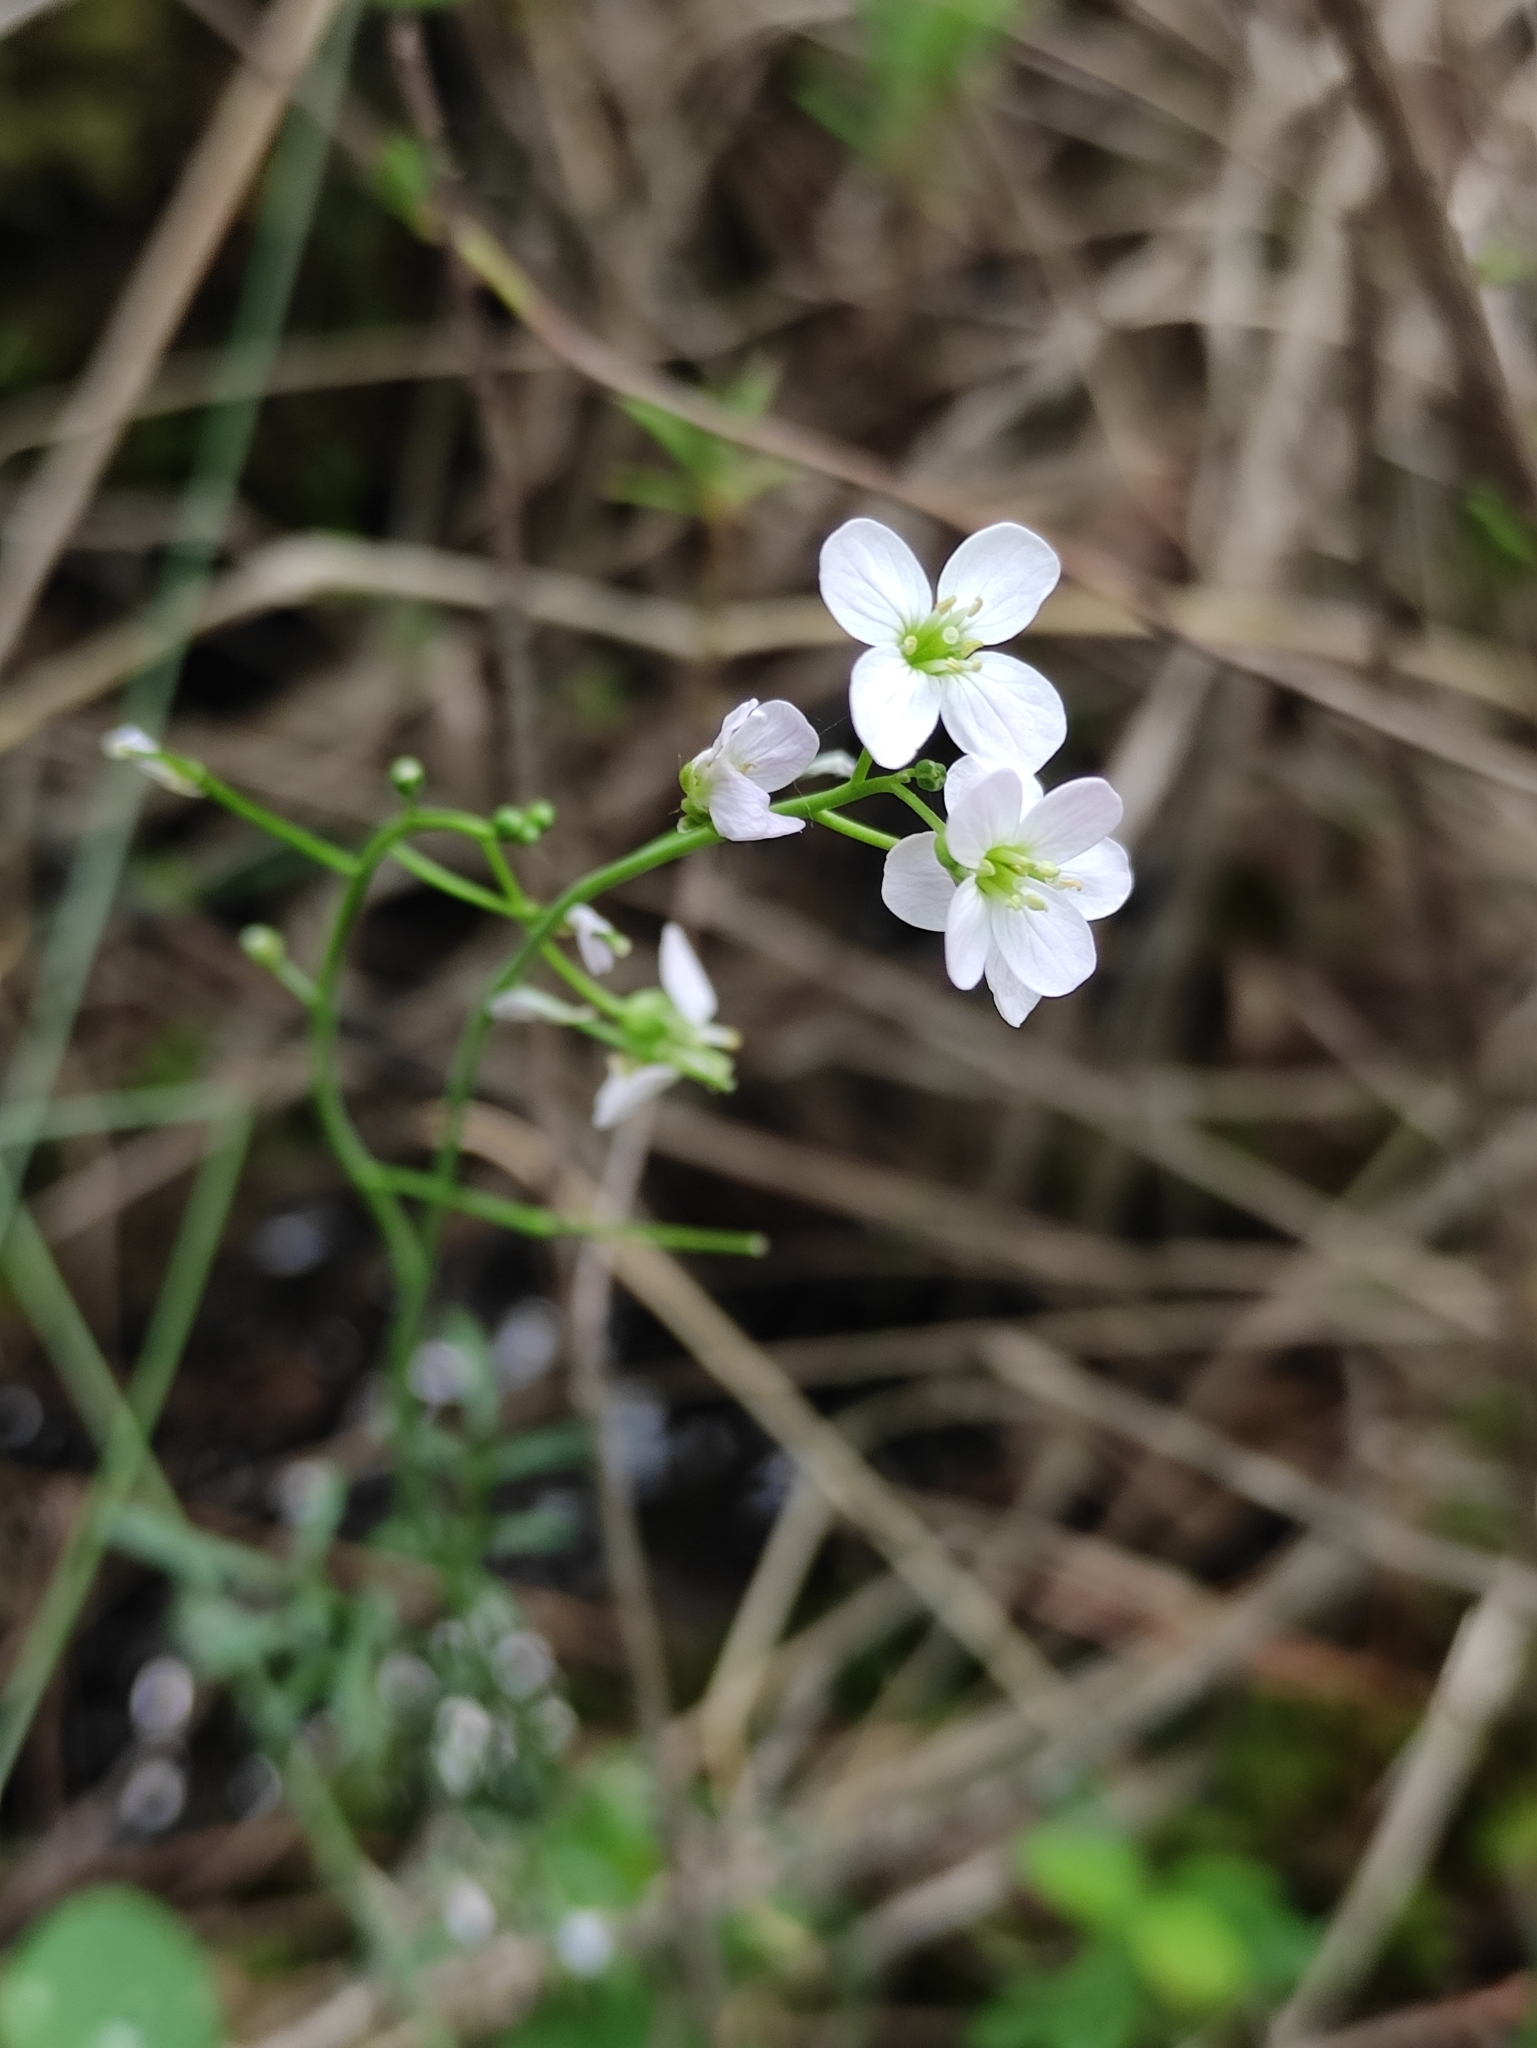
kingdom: Plantae
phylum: Tracheophyta
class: Magnoliopsida
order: Brassicales
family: Brassicaceae
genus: Cardamine
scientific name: Cardamine pratensis
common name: Cuckoo flower
